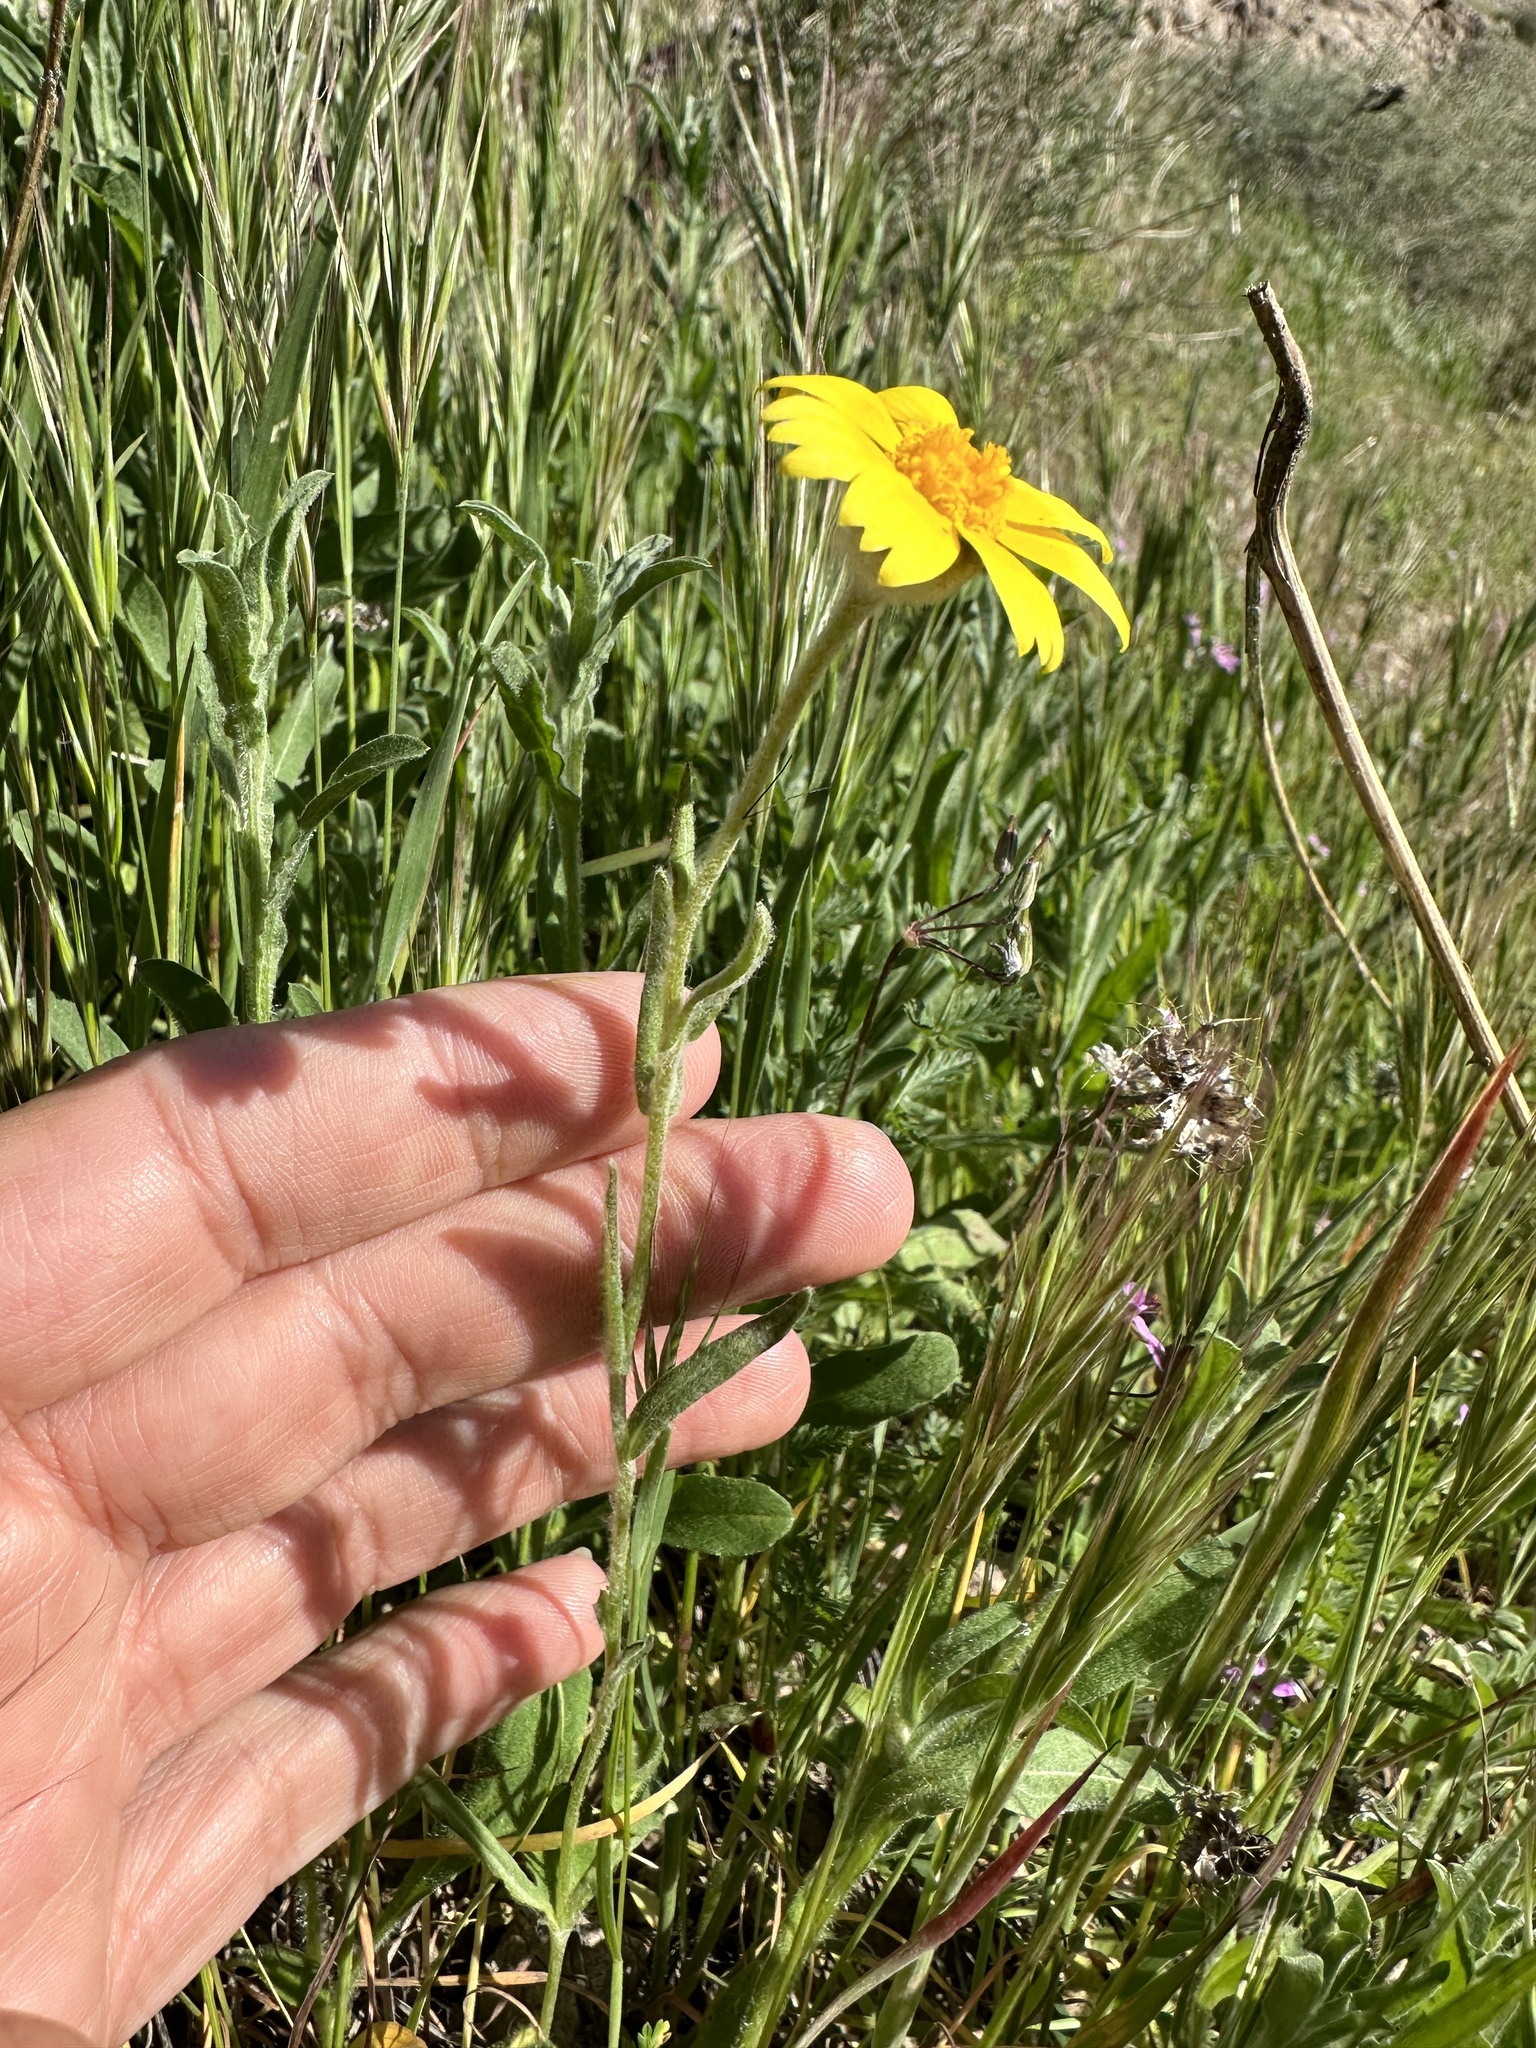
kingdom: Plantae
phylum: Tracheophyta
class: Magnoliopsida
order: Asterales
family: Asteraceae
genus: Monolopia
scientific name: Monolopia lanceolata
